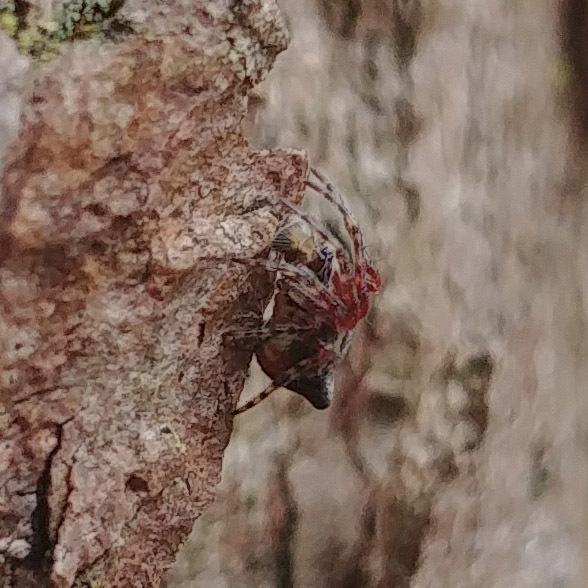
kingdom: Animalia
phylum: Arthropoda
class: Arachnida
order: Araneae
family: Araneidae
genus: Cyclosa
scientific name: Cyclosa conica
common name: Conical trashline orbweaver
